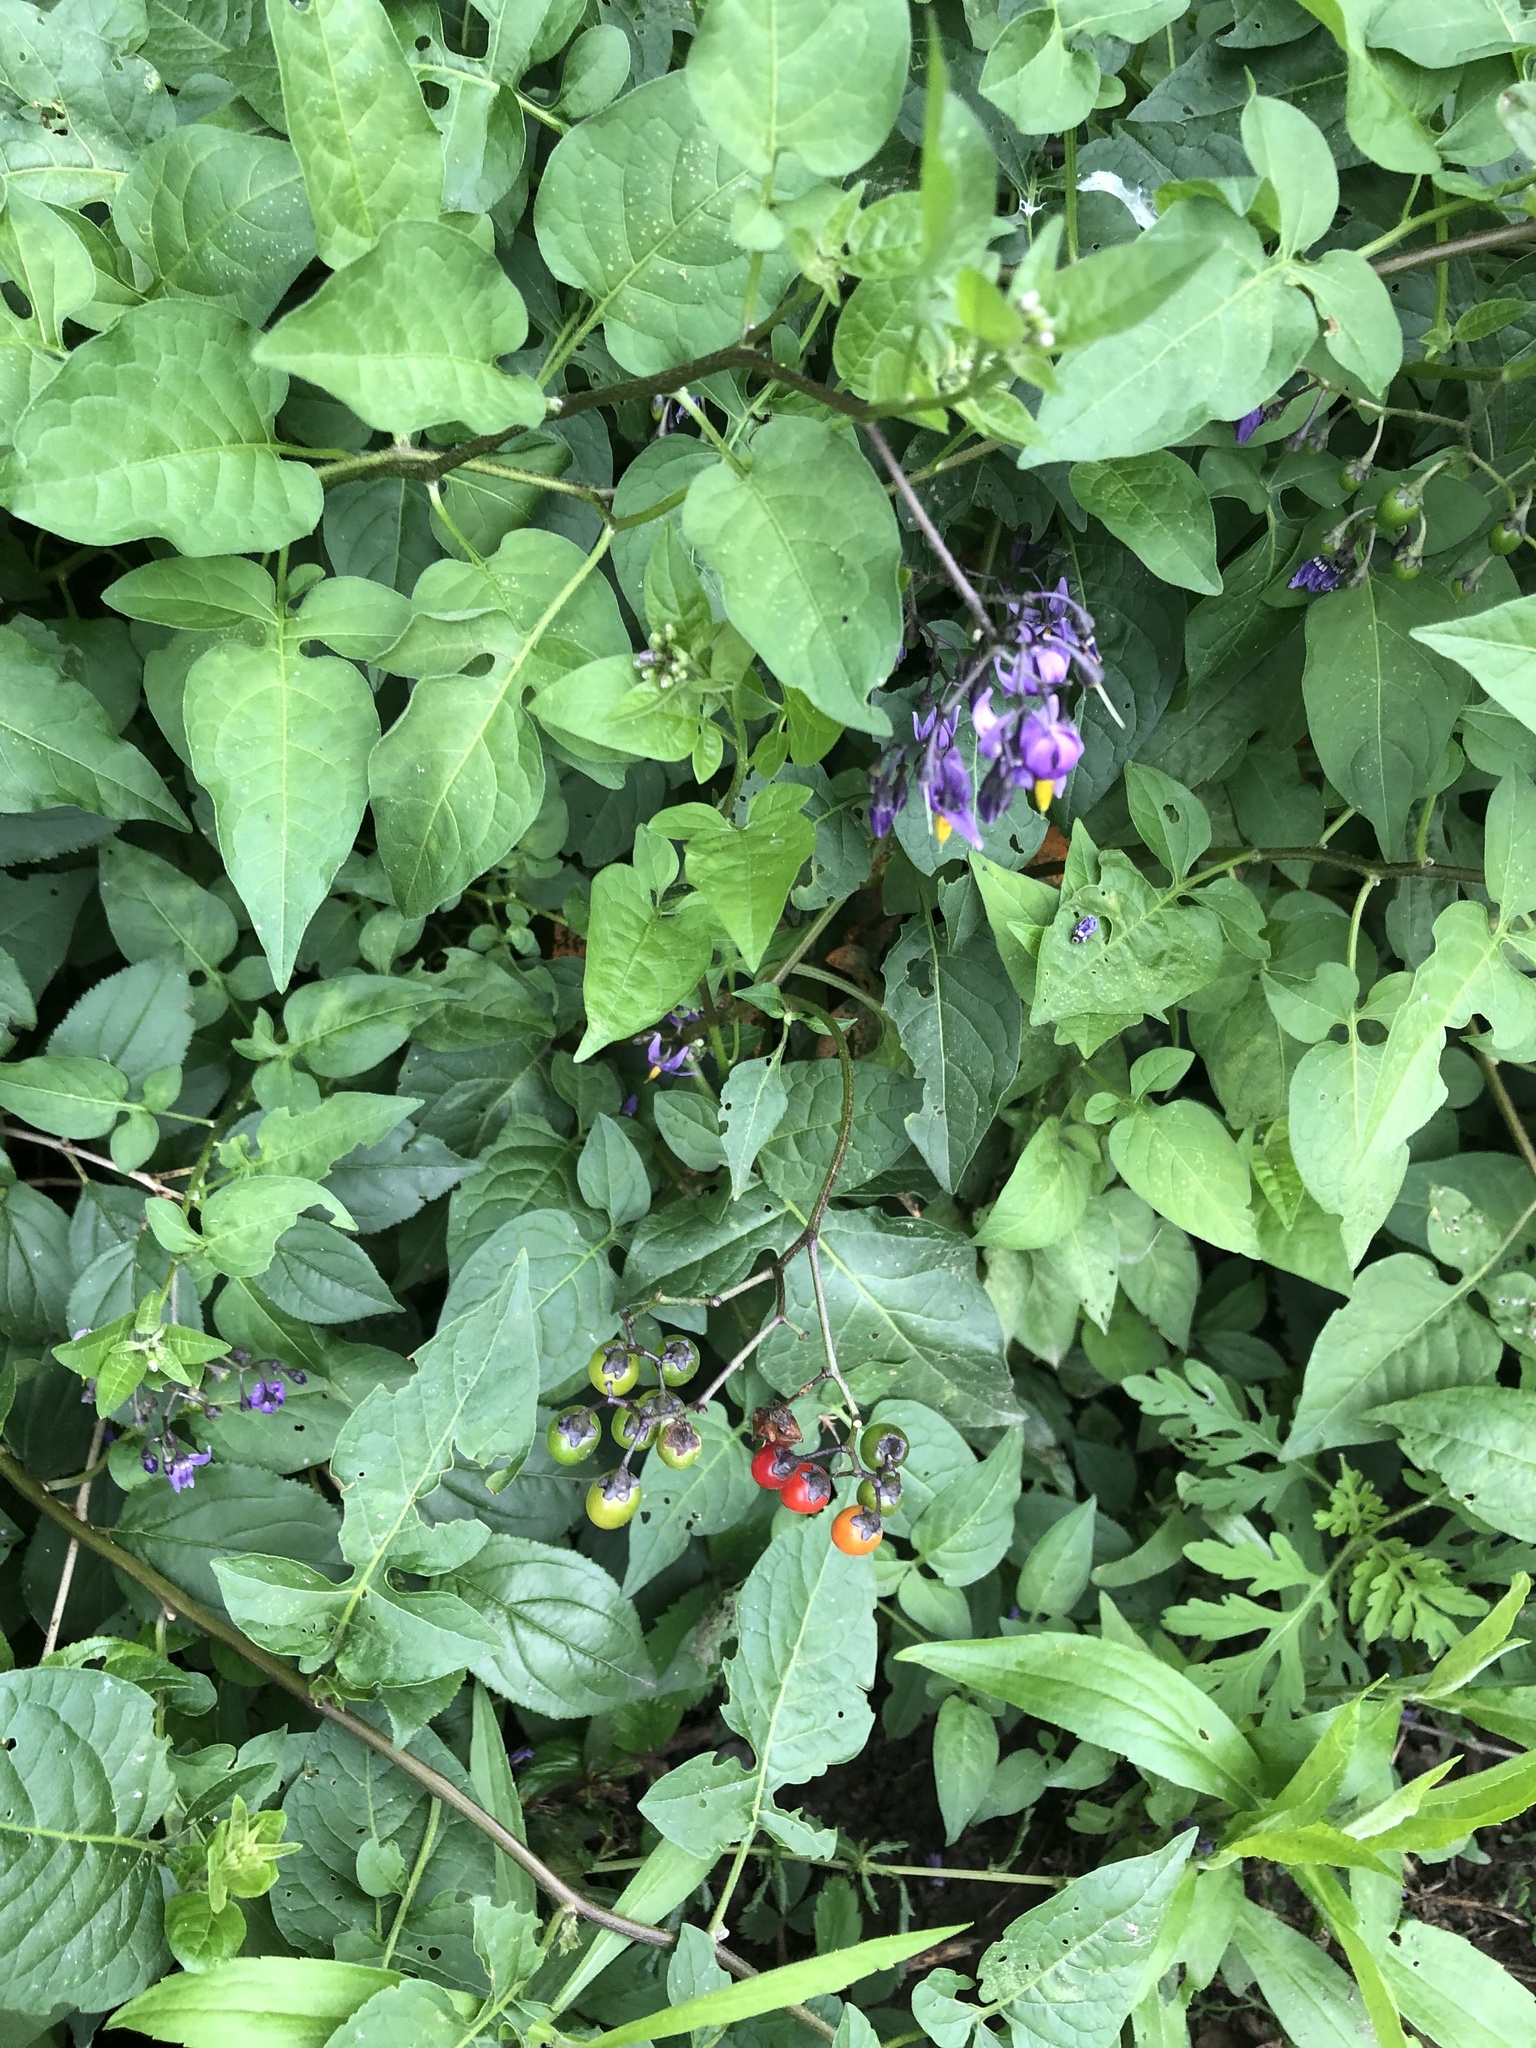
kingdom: Plantae
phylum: Tracheophyta
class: Magnoliopsida
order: Solanales
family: Solanaceae
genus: Solanum
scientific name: Solanum dulcamara
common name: Climbing nightshade
